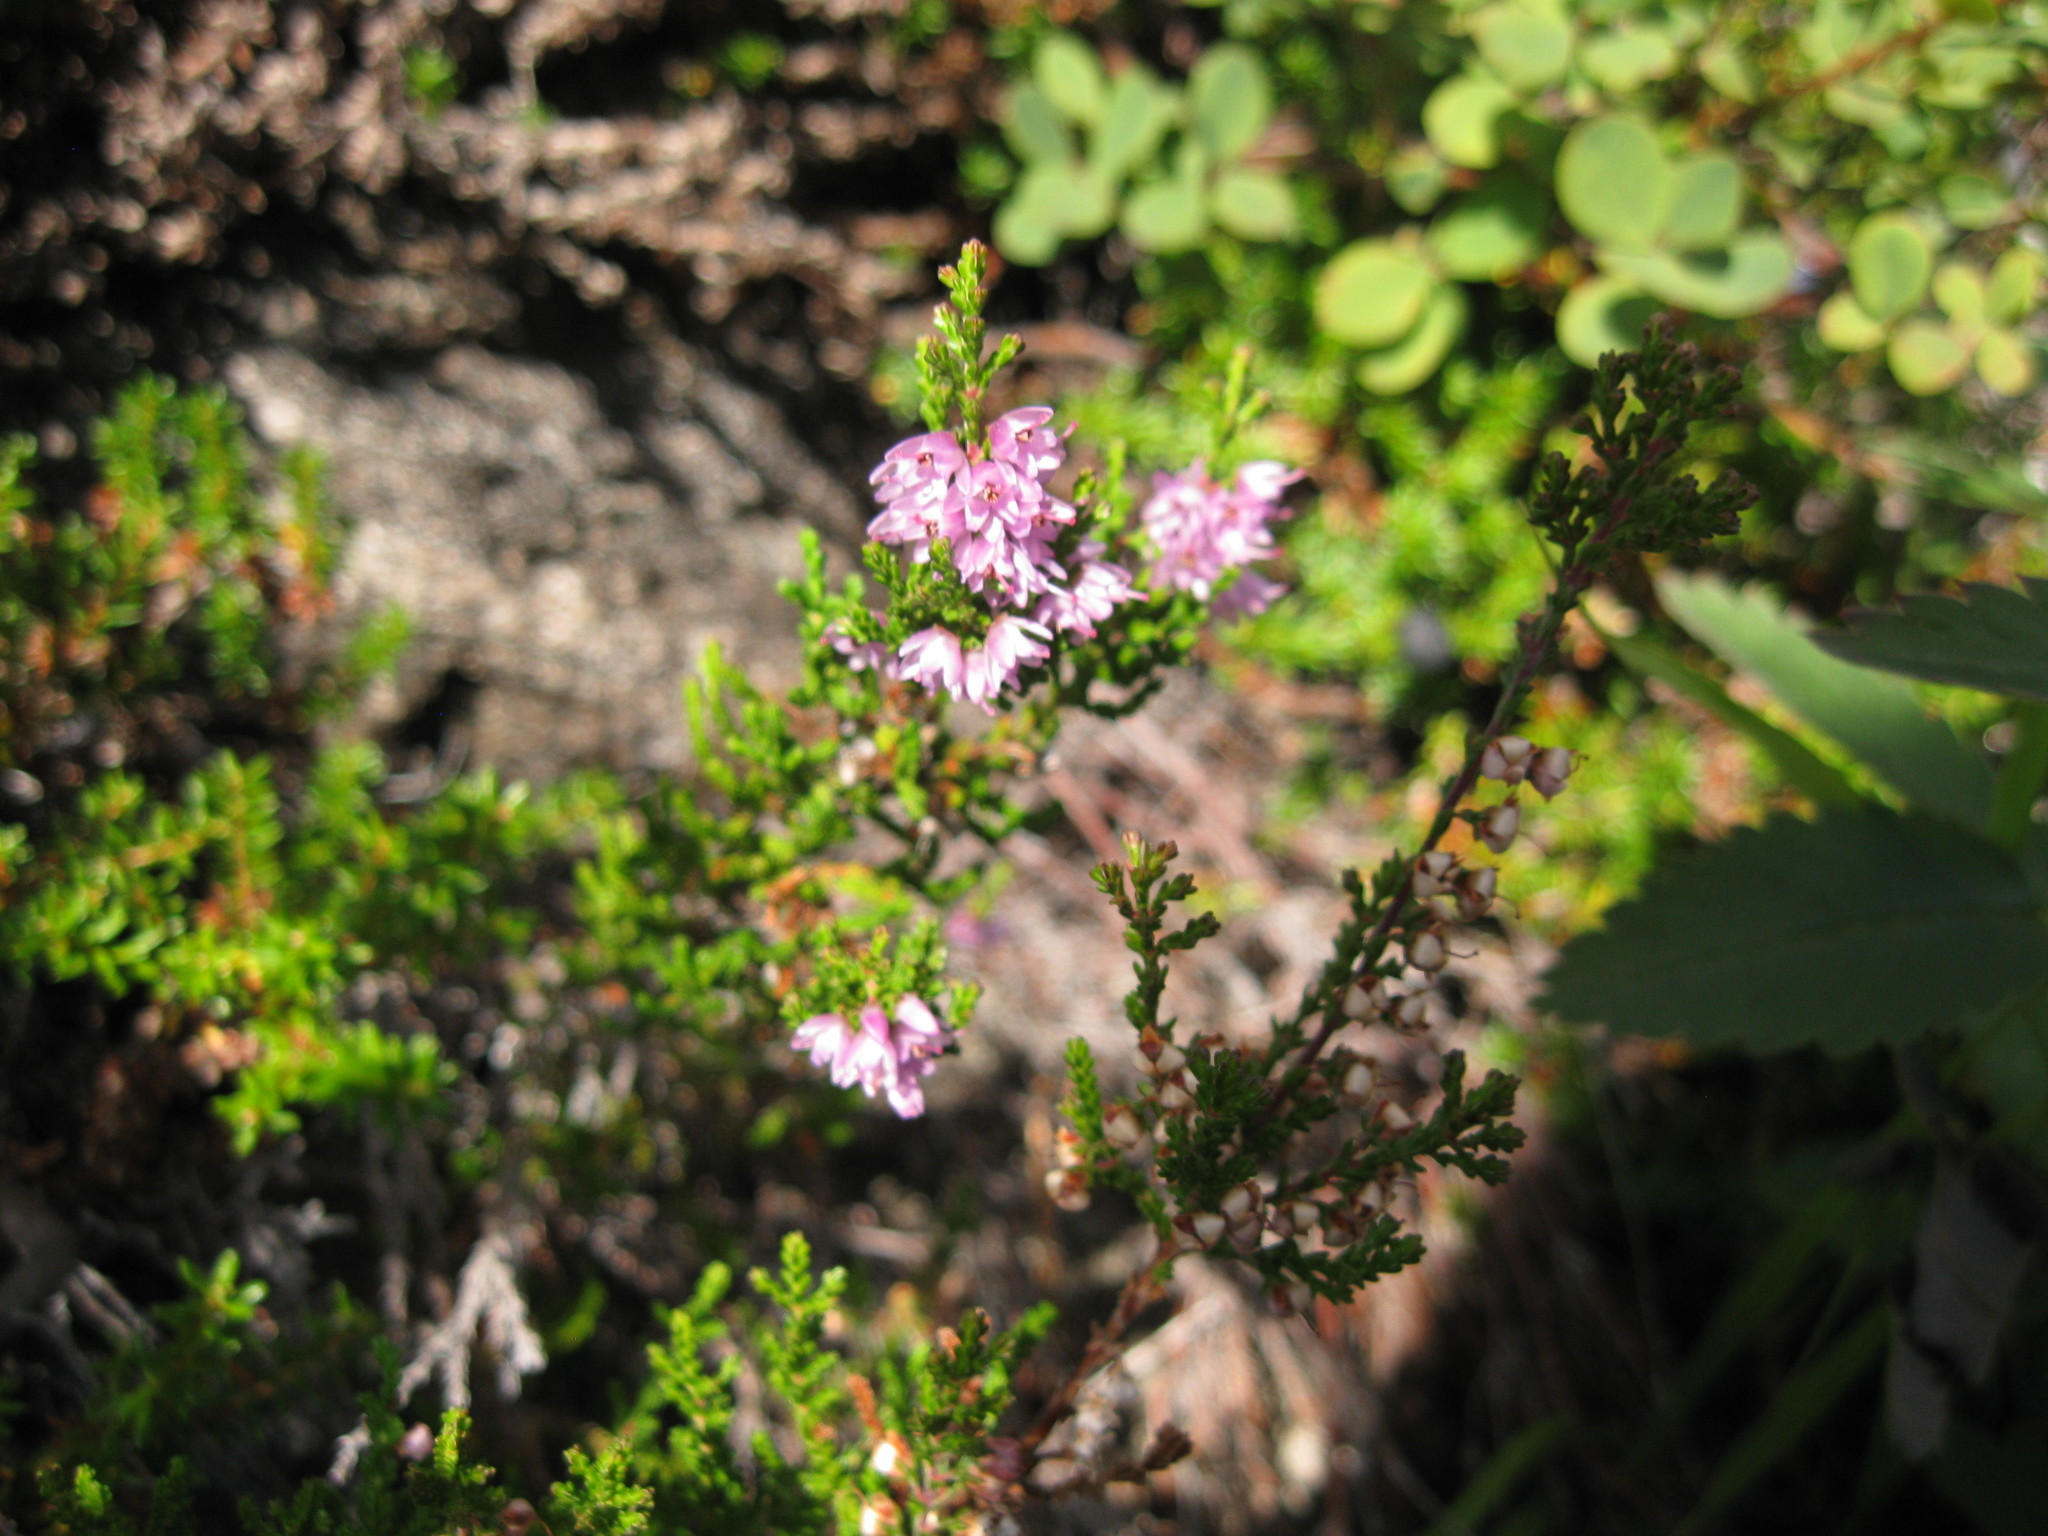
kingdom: Plantae
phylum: Tracheophyta
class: Magnoliopsida
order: Ericales
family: Ericaceae
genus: Calluna
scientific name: Calluna vulgaris
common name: Heather
